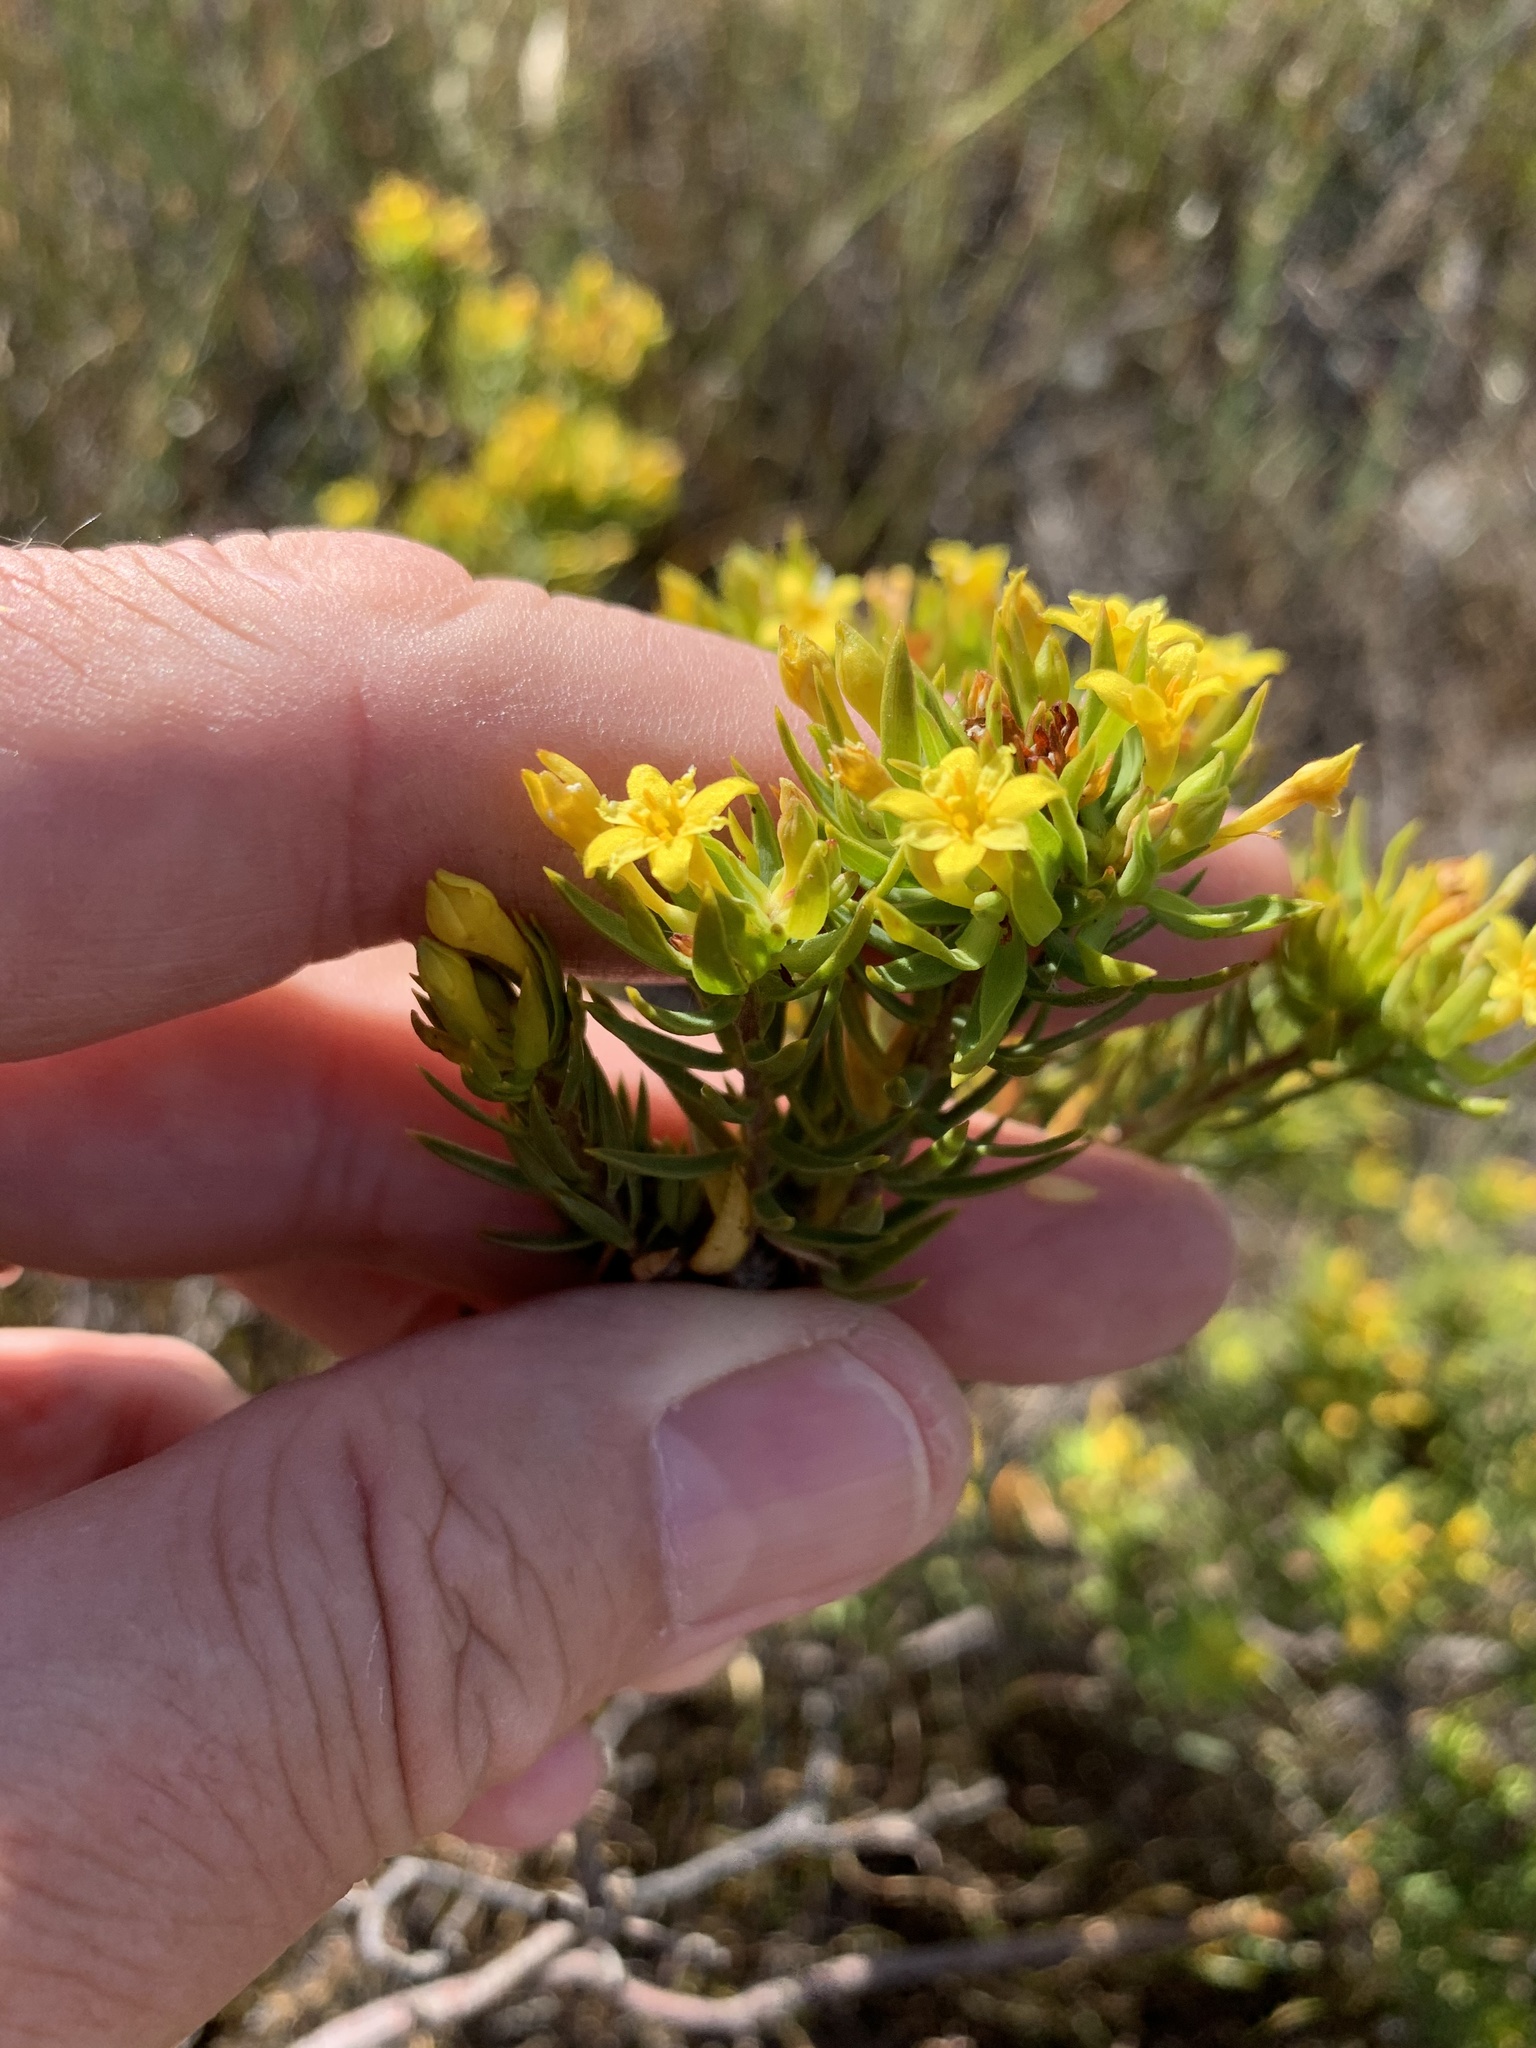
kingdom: Plantae
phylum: Tracheophyta
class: Magnoliopsida
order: Malvales
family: Thymelaeaceae
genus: Gnidia
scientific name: Gnidia juniperifolia
